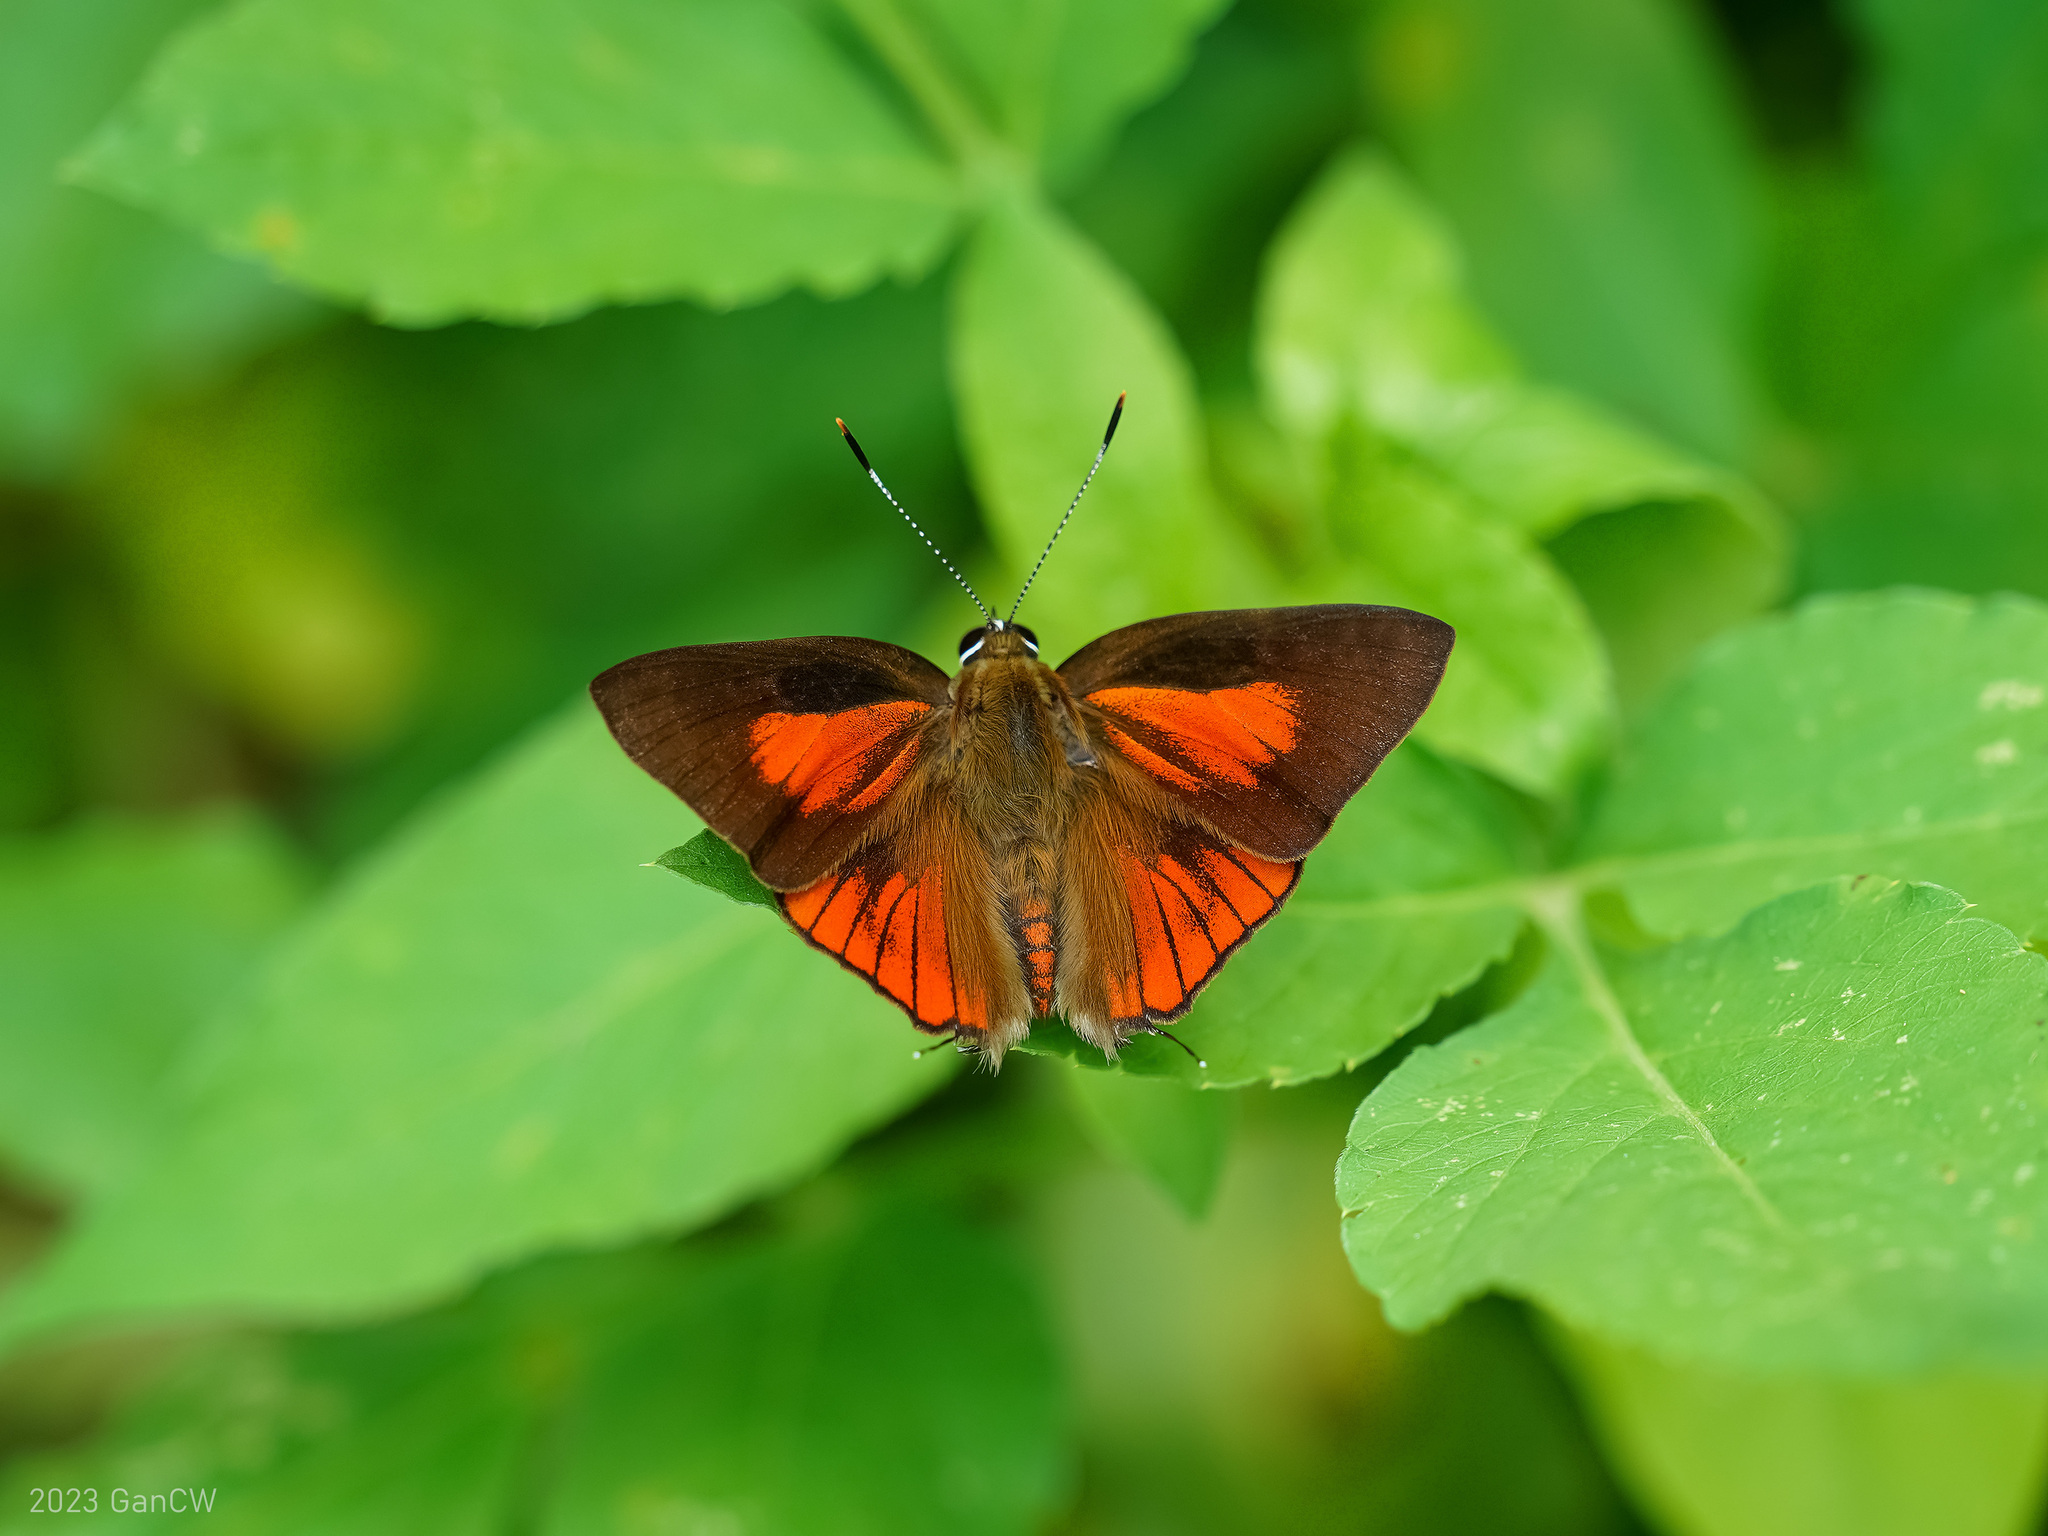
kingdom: Animalia
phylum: Arthropoda
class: Insecta
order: Lepidoptera
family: Lycaenidae
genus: Deudorix
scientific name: Deudorix epijarbas
